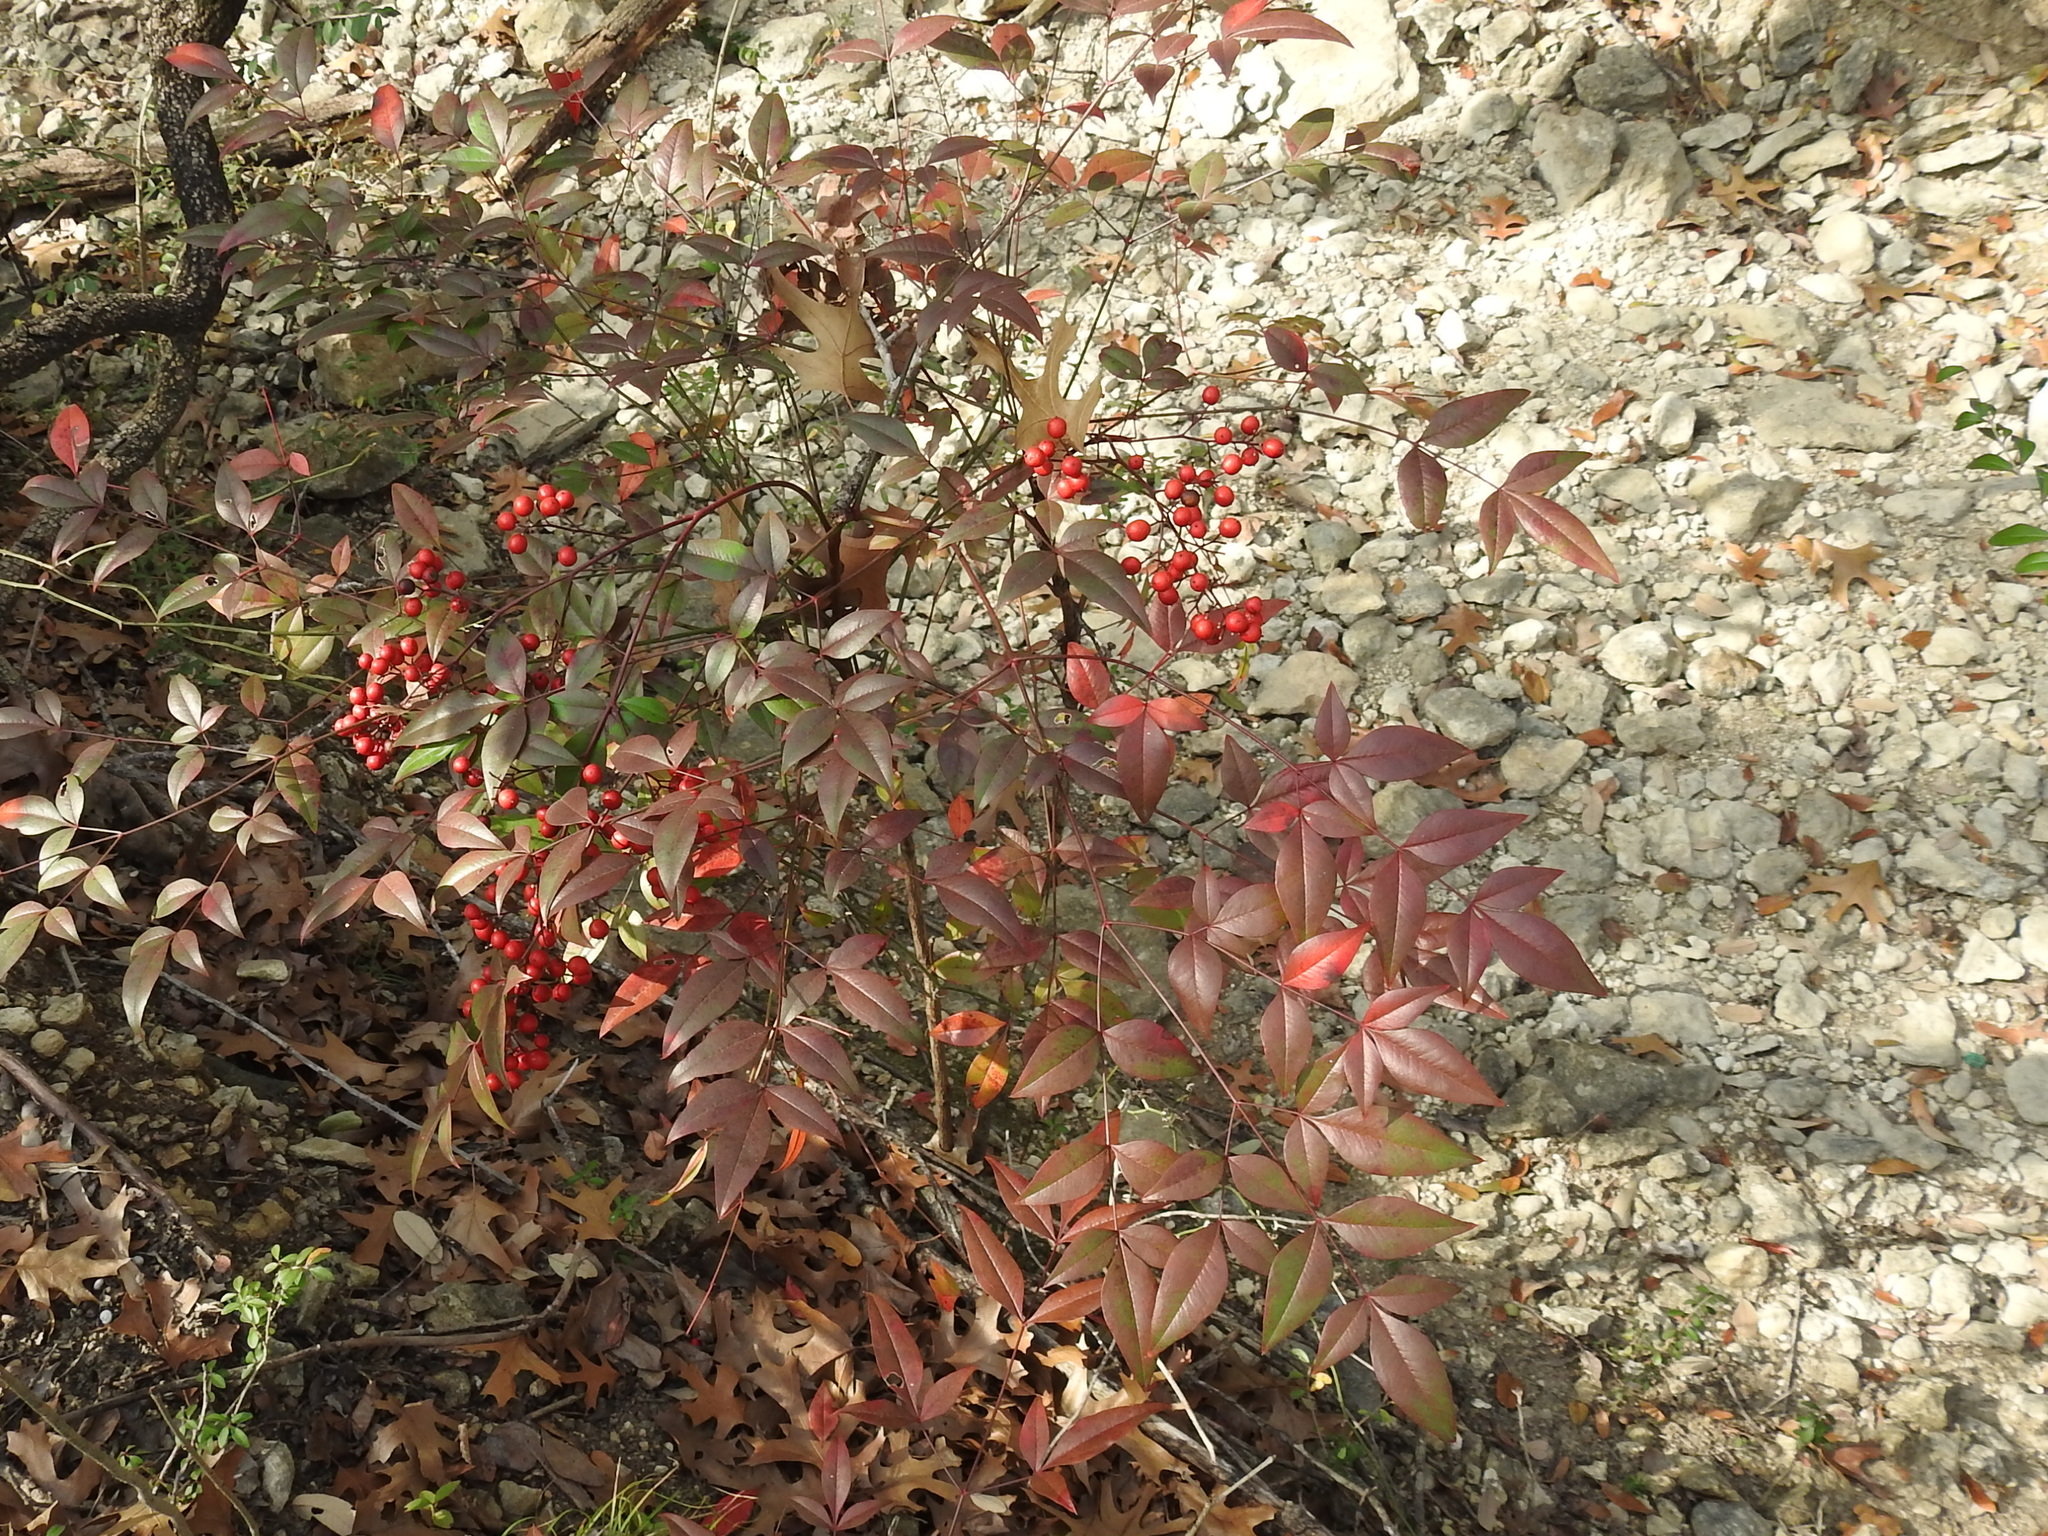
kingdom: Plantae
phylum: Tracheophyta
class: Magnoliopsida
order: Ranunculales
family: Berberidaceae
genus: Nandina
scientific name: Nandina domestica
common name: Sacred bamboo
